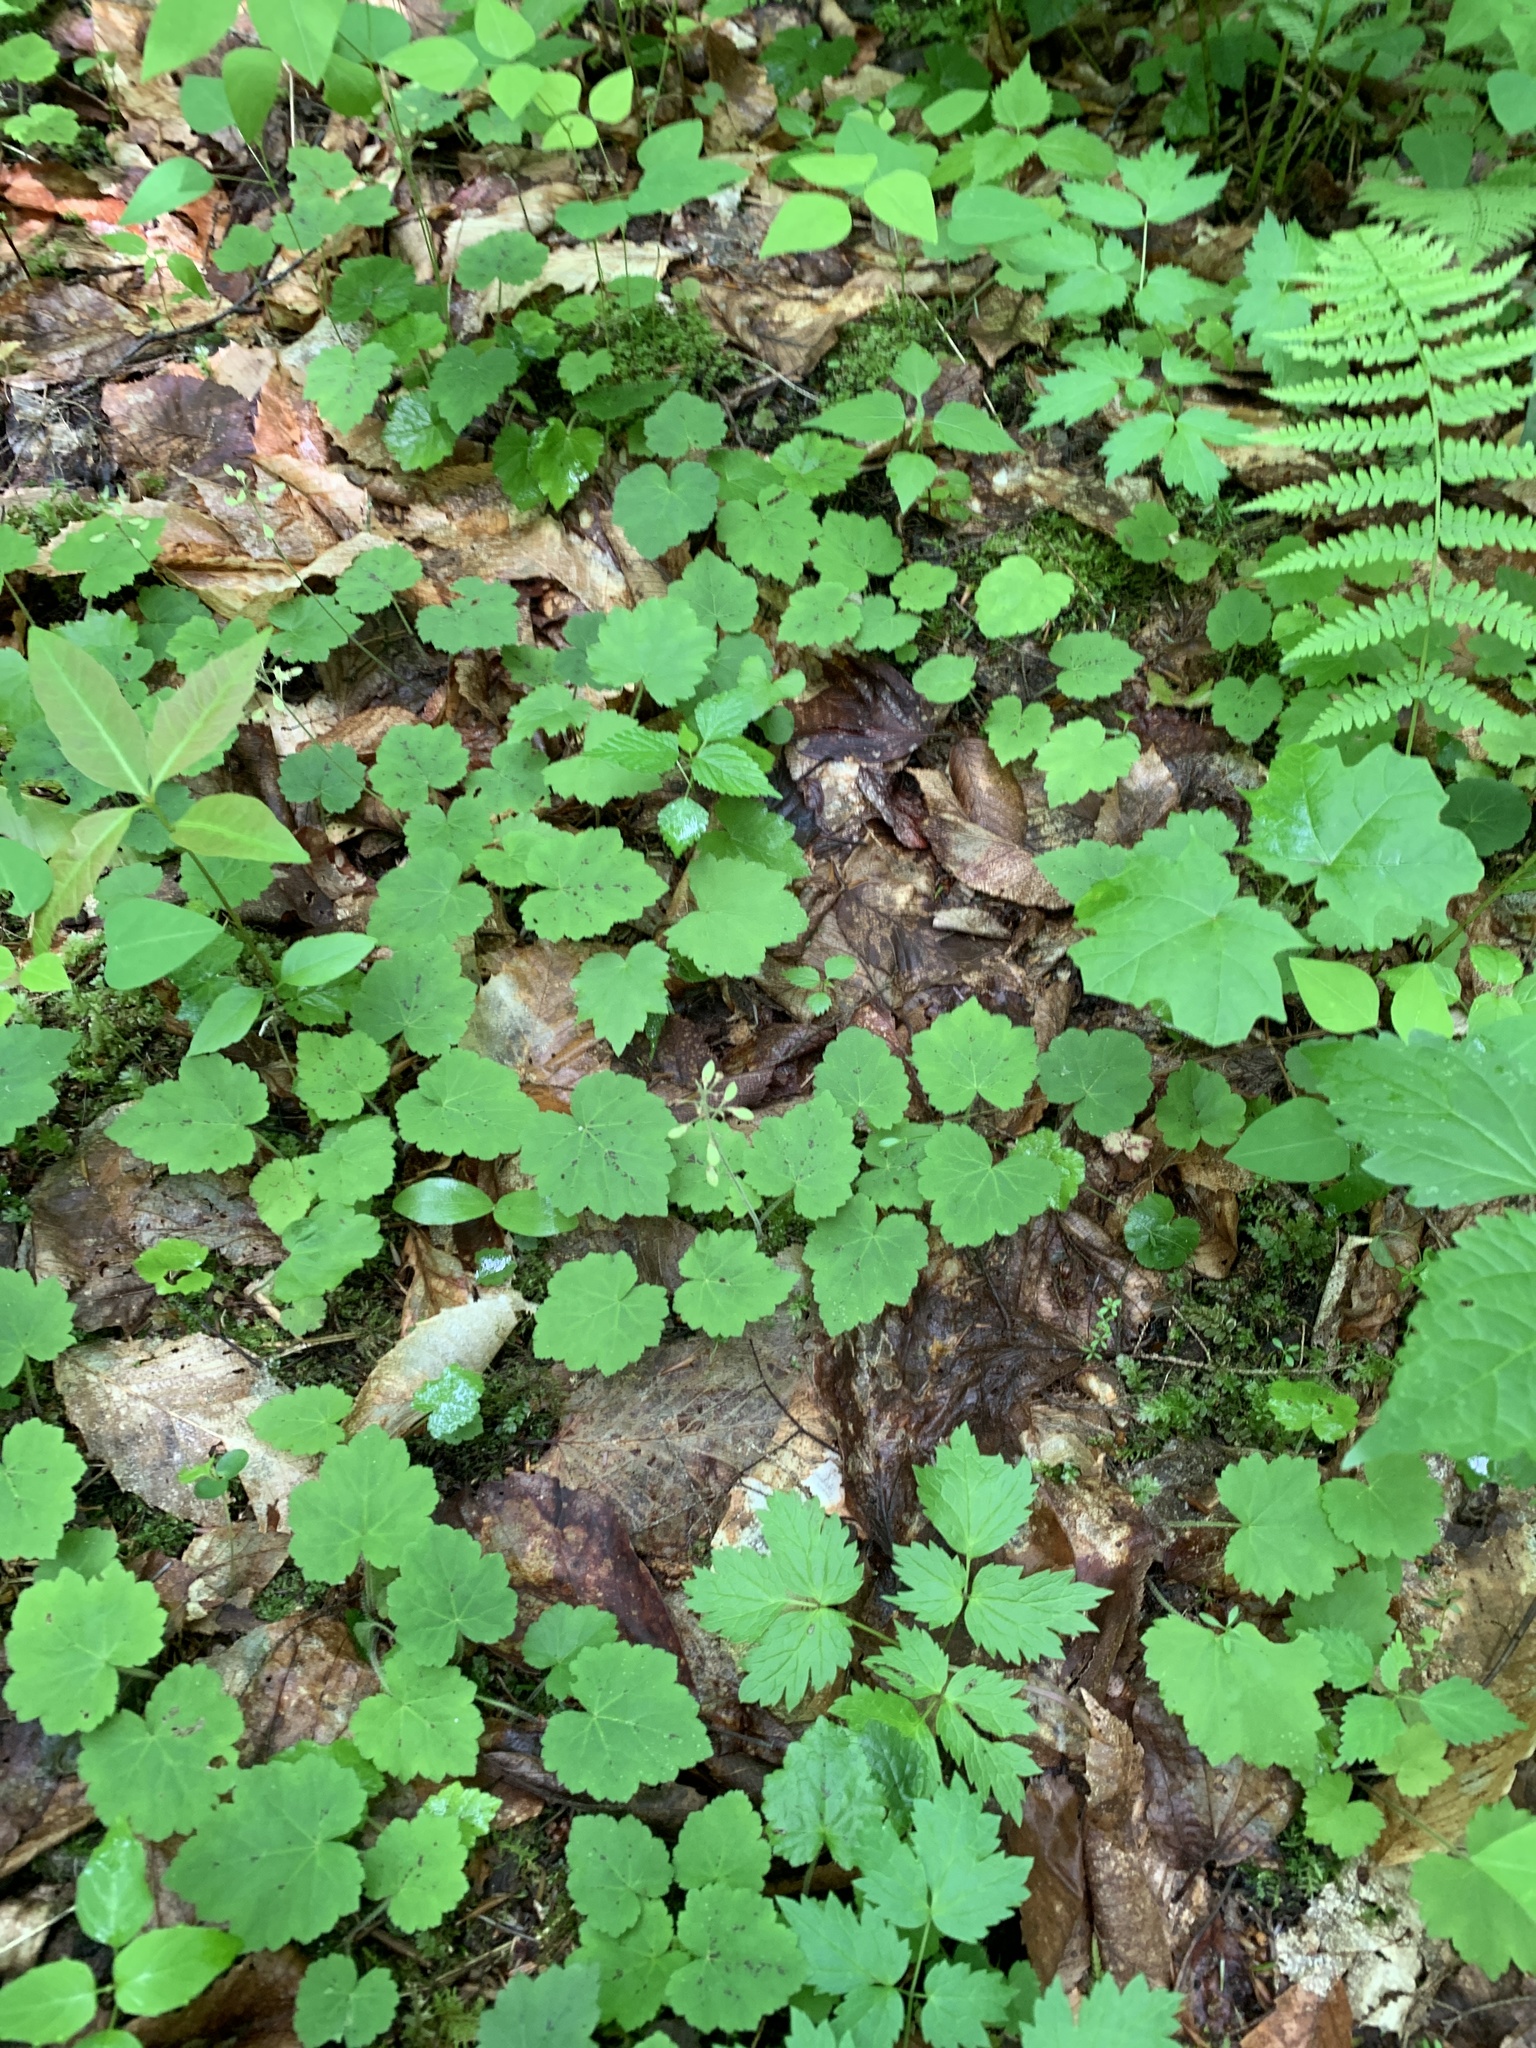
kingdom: Plantae
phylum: Tracheophyta
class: Magnoliopsida
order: Saxifragales
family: Saxifragaceae
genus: Tiarella
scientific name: Tiarella stolonifera
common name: Stoloniferous foamflower
